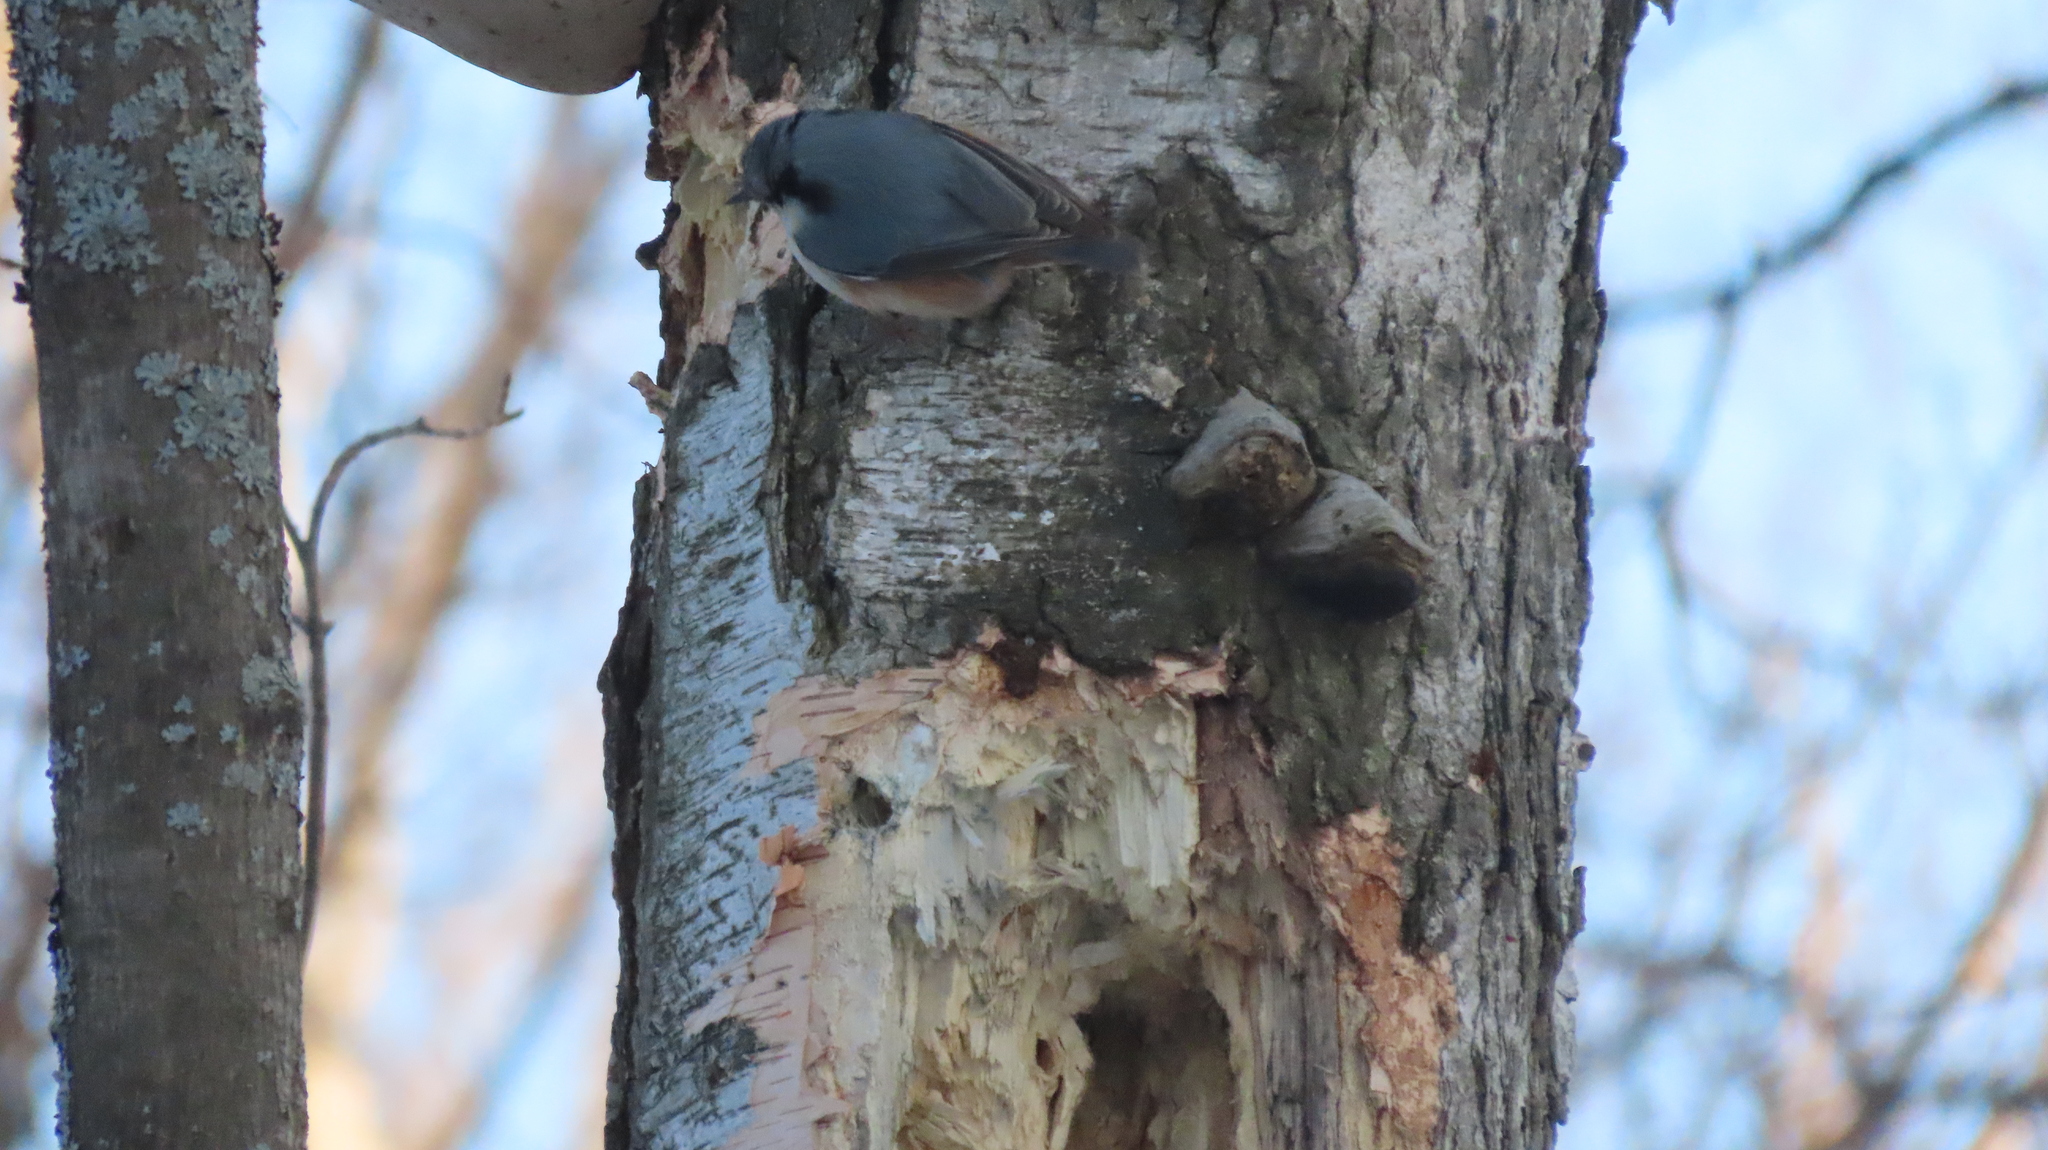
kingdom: Animalia
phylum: Chordata
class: Aves
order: Passeriformes
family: Sittidae
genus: Sitta
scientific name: Sitta europaea
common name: Eurasian nuthatch
